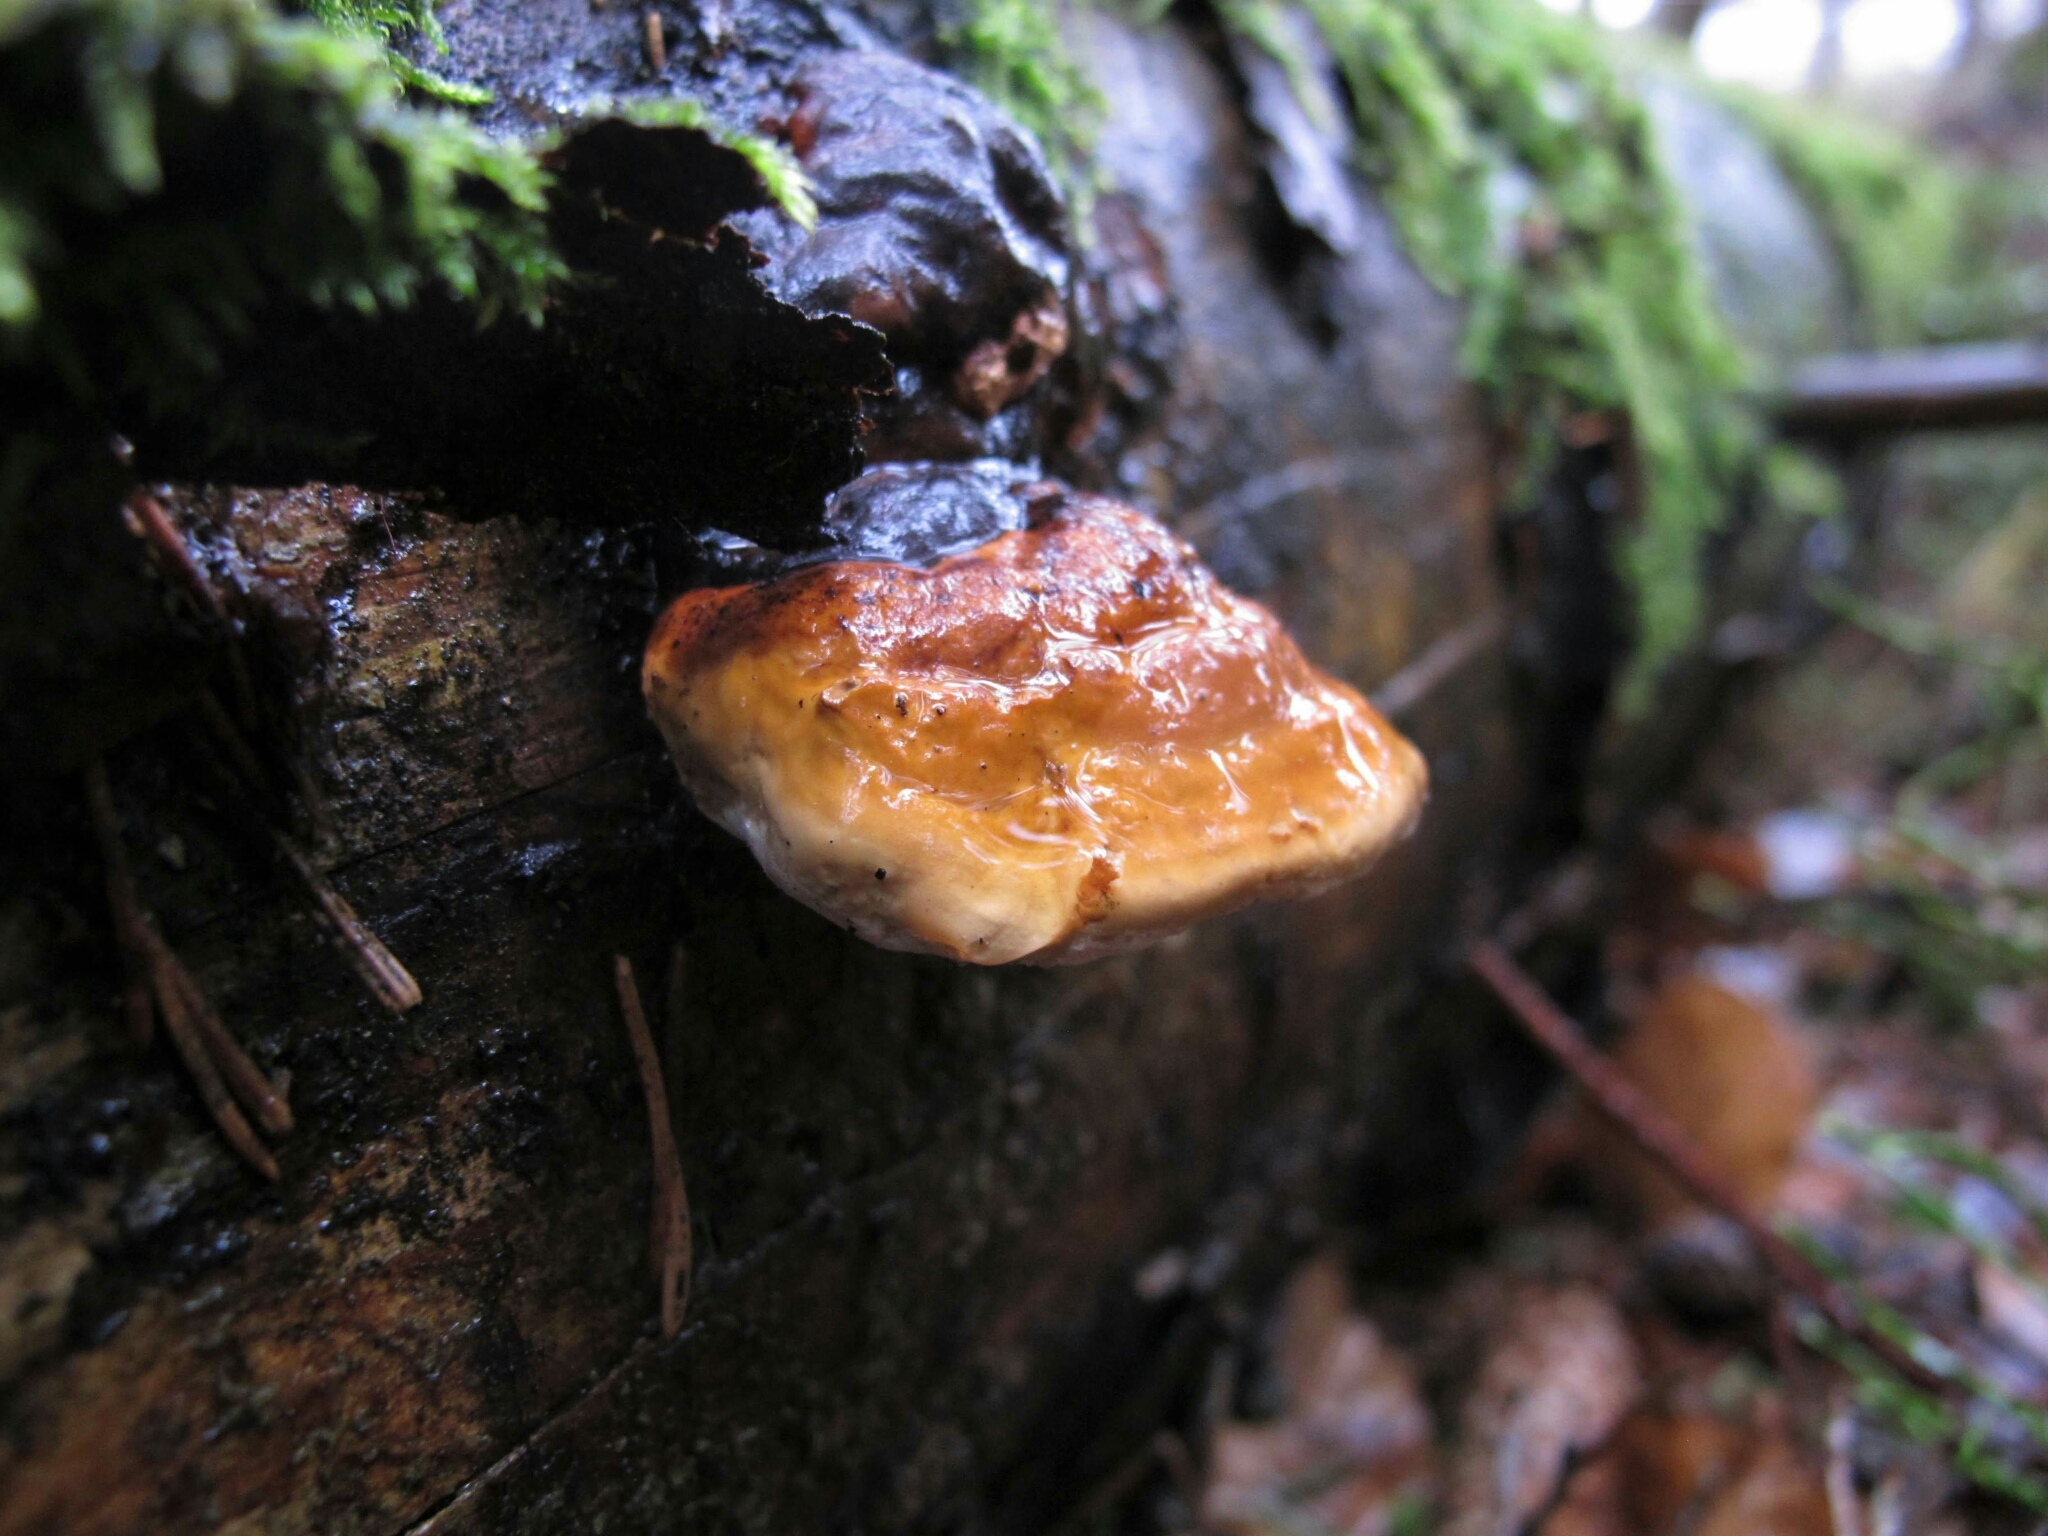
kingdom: Fungi
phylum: Basidiomycota
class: Agaricomycetes
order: Polyporales
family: Fomitopsidaceae
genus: Fomitopsis
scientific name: Fomitopsis pinicola
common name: Red-belted bracket
